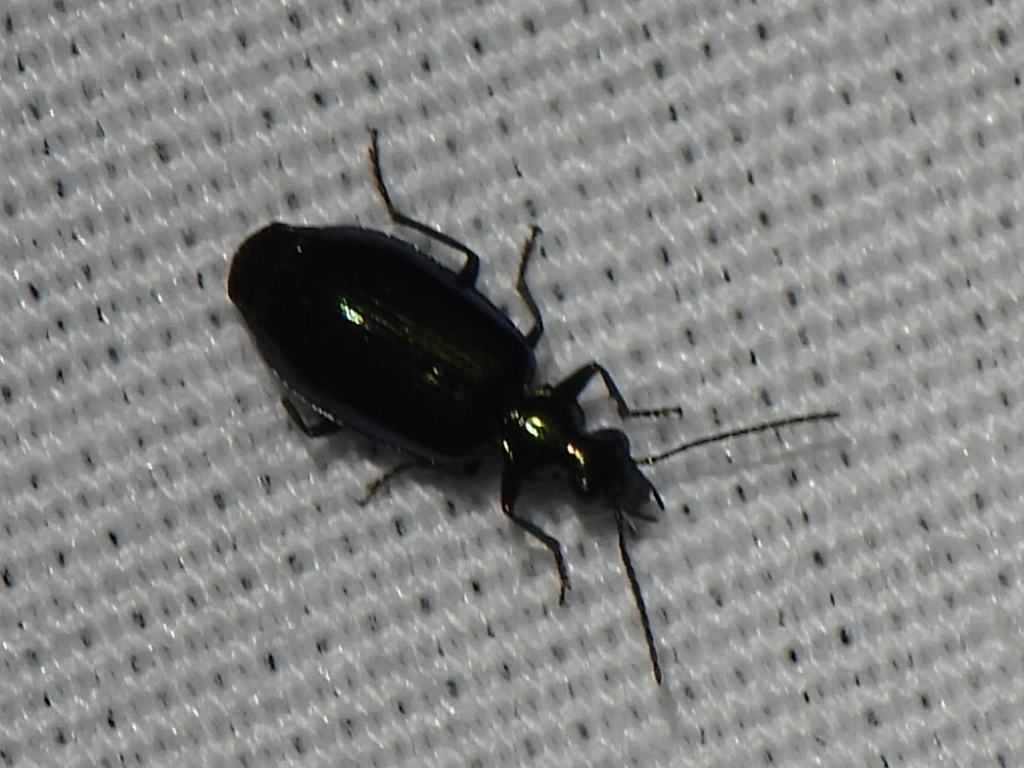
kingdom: Animalia
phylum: Arthropoda
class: Insecta
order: Coleoptera
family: Carabidae
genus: Lebia
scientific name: Lebia viridis
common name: Flower lebia beetle
